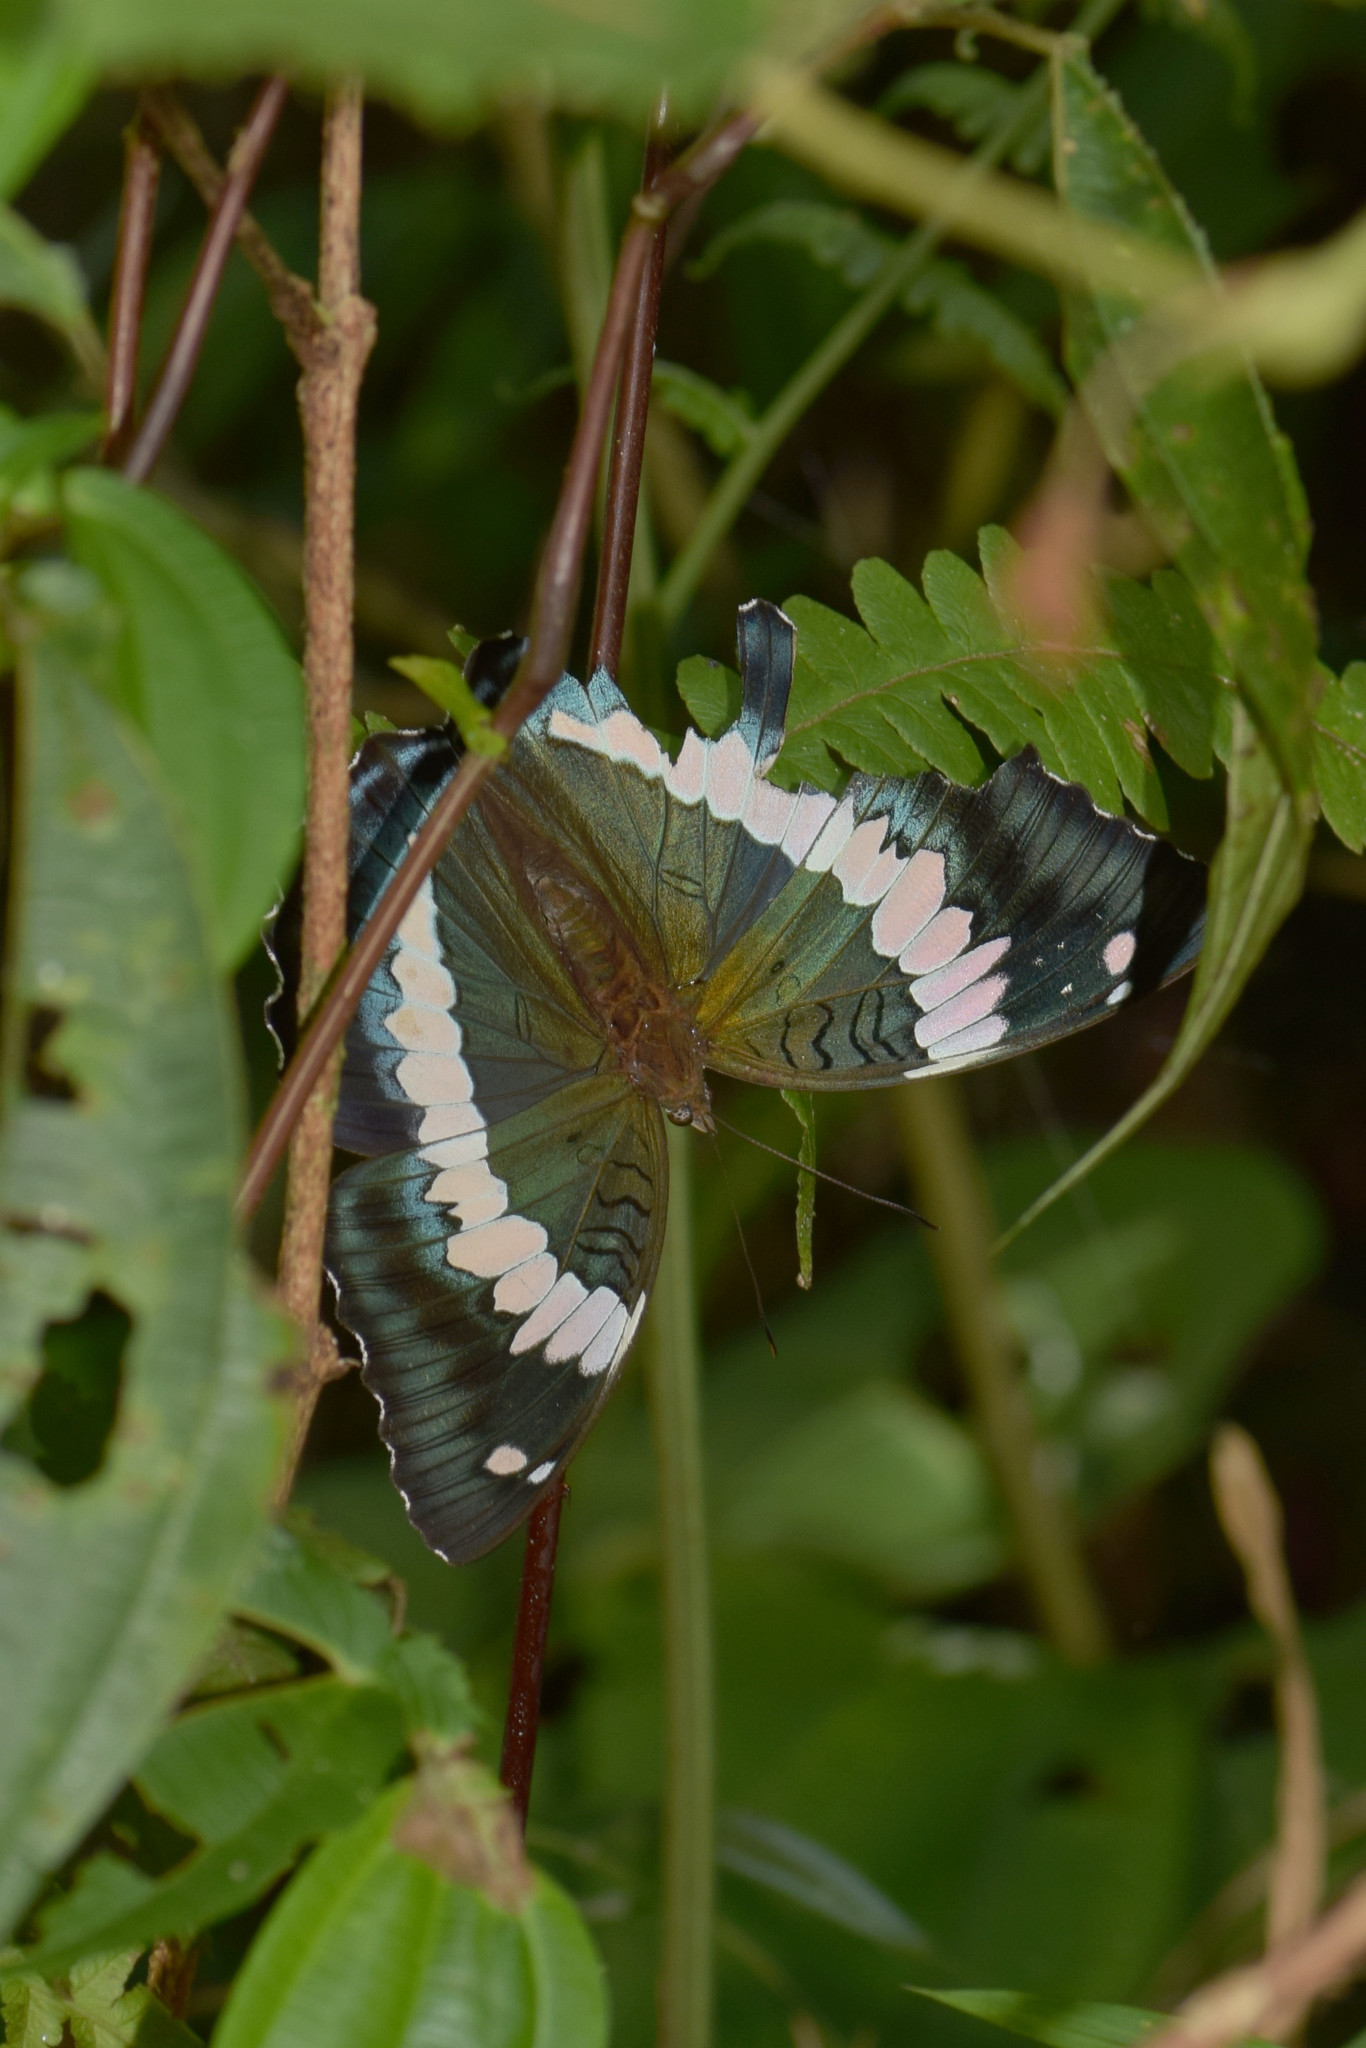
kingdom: Animalia
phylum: Arthropoda
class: Insecta
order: Lepidoptera
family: Nymphalidae
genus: Euthalia
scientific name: Euthalia durga
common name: Blue duke
